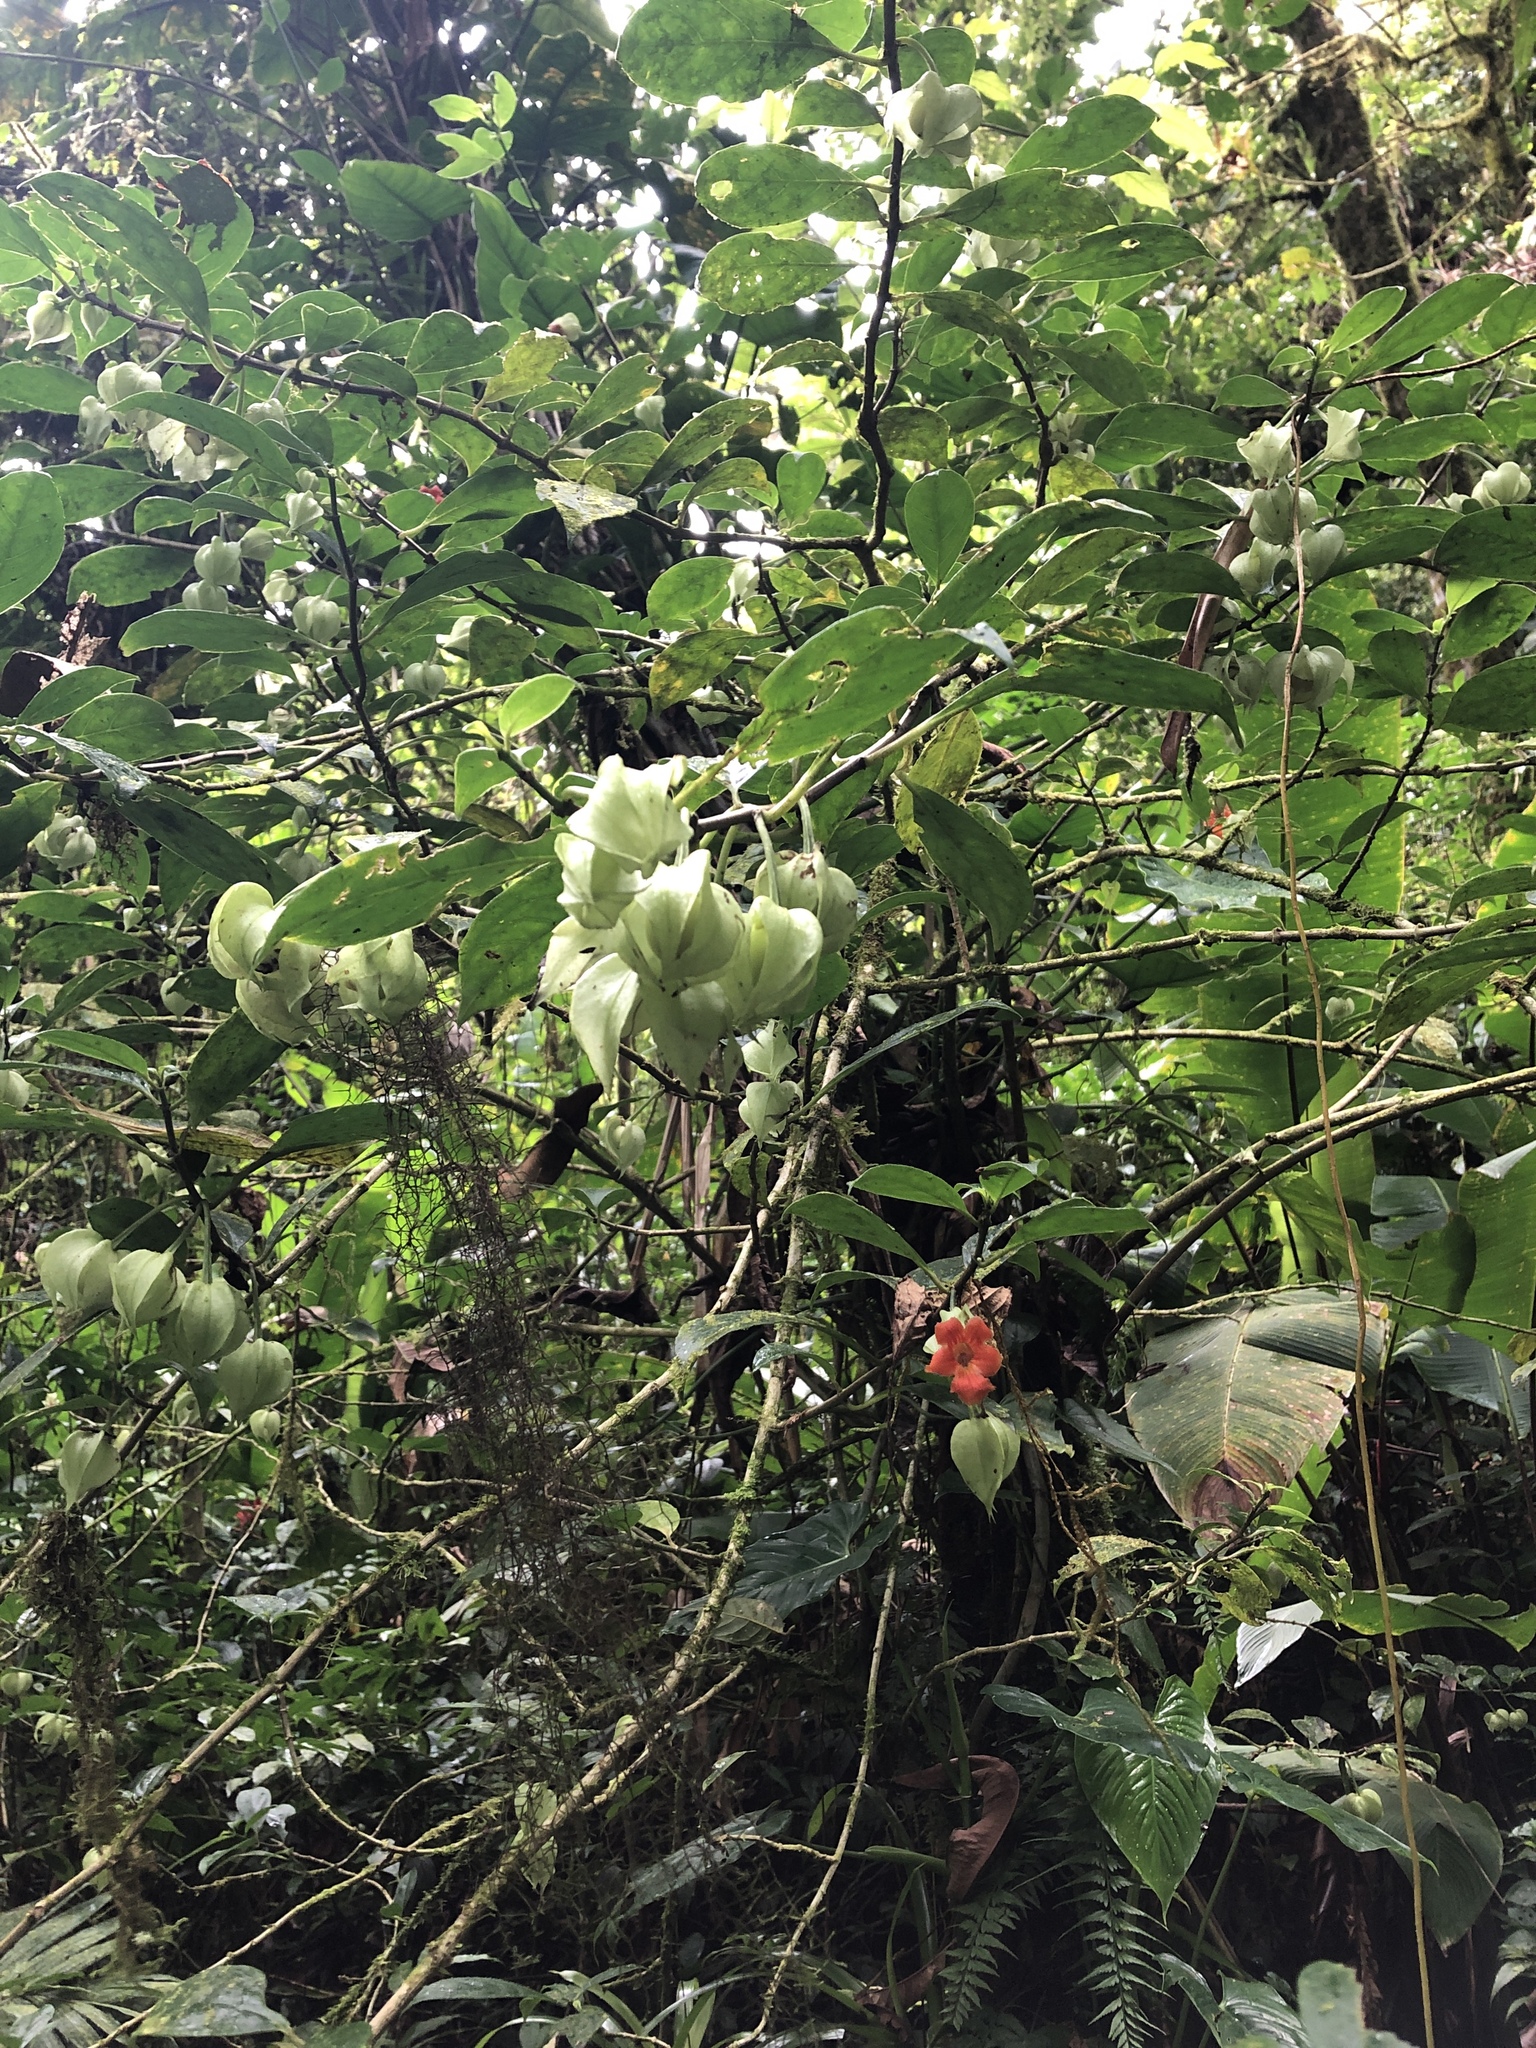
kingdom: Plantae
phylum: Tracheophyta
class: Magnoliopsida
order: Lamiales
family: Gesneriaceae
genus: Drymonia
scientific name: Drymonia rubra
